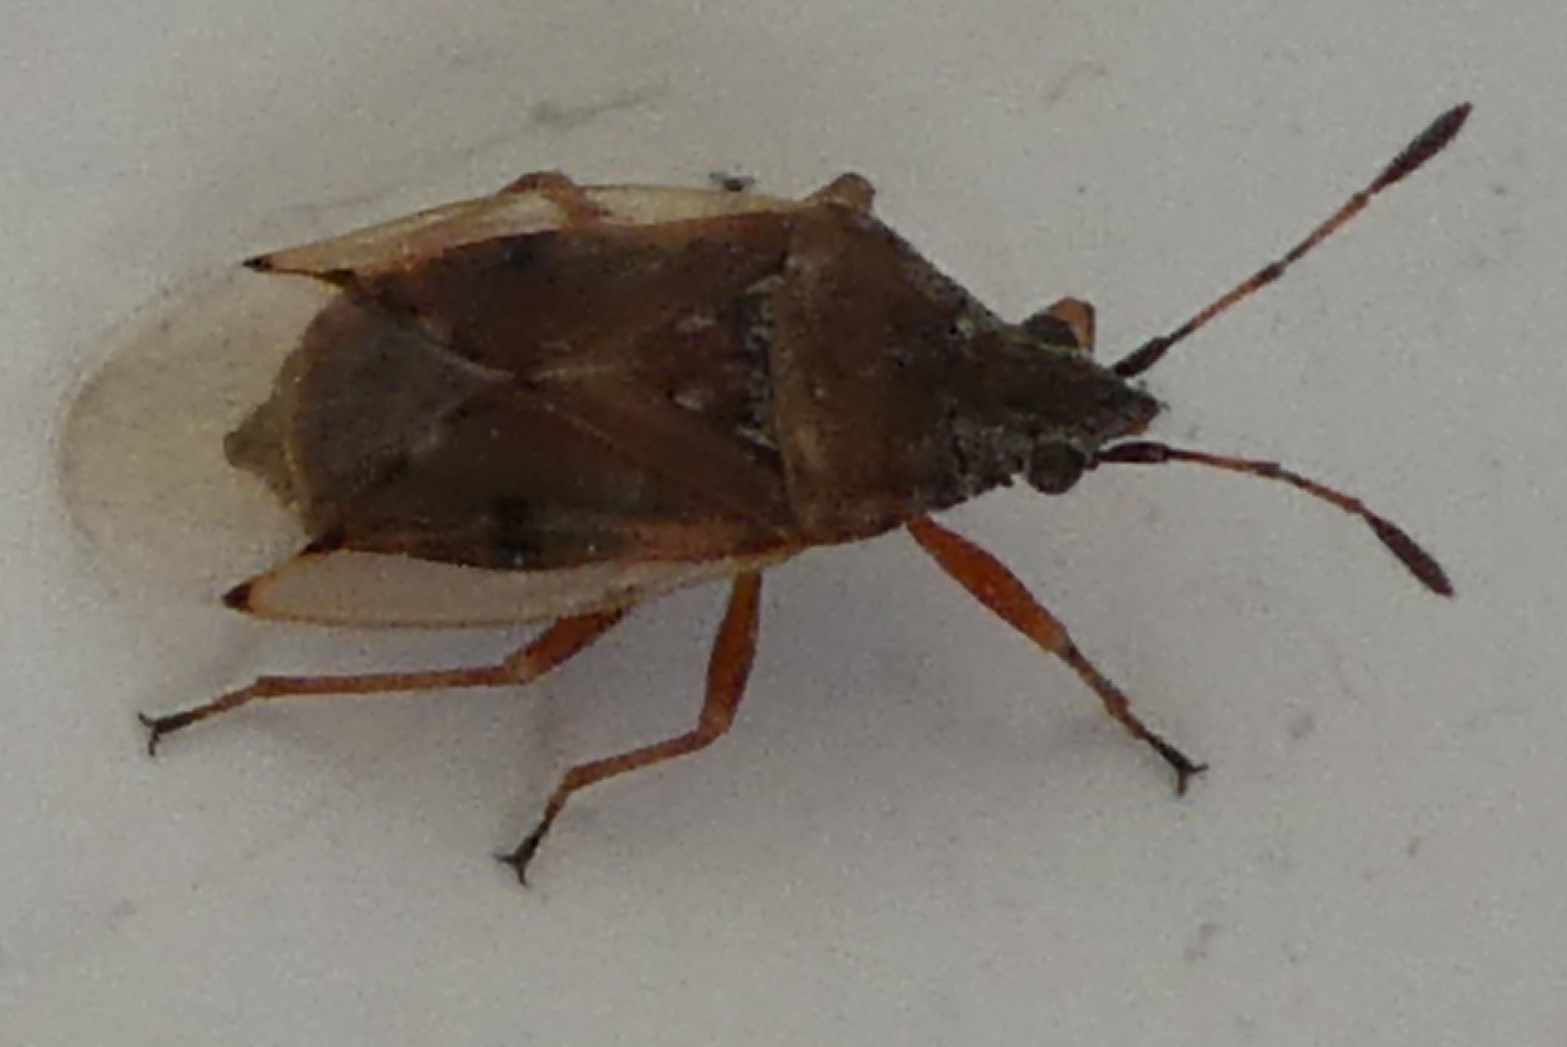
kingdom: Animalia
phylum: Arthropoda
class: Insecta
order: Hemiptera
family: Lygaeidae
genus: Kleidocerys
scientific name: Kleidocerys resedae
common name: Birch catkin bug
